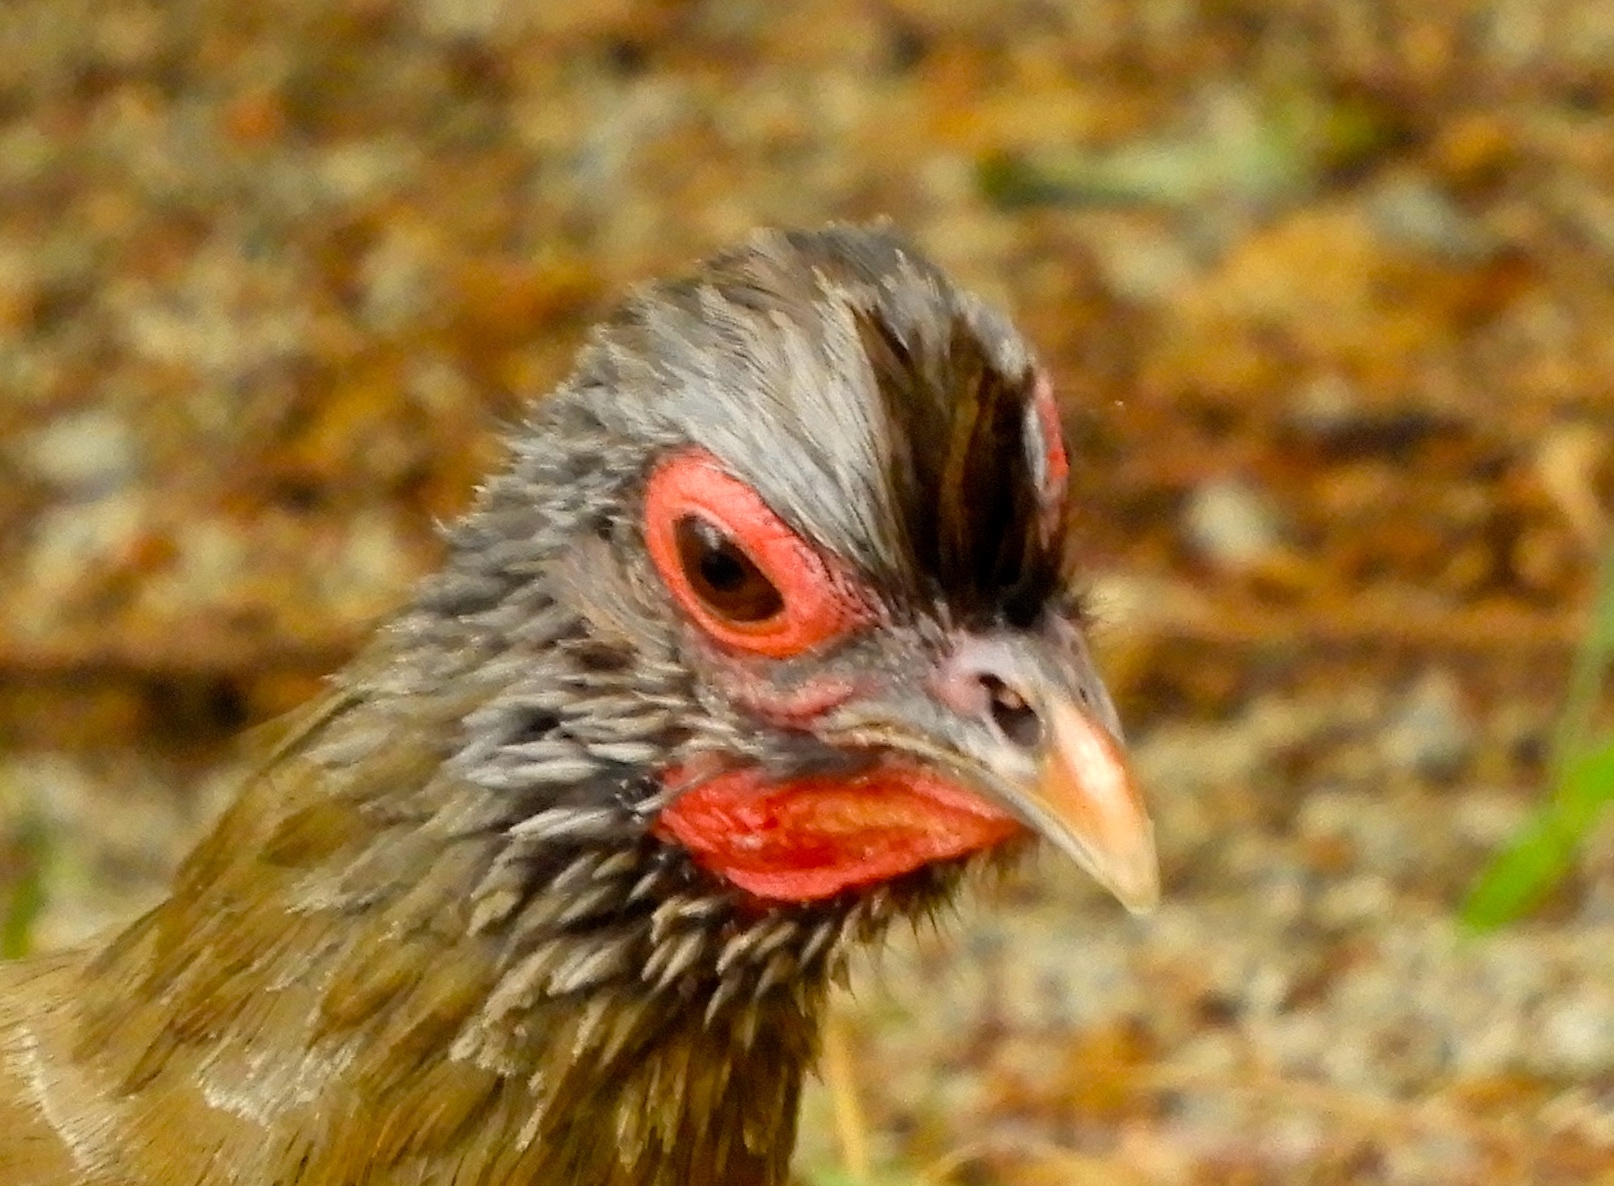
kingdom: Animalia
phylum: Chordata
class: Aves
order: Galliformes
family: Cracidae
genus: Ortalis
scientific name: Ortalis wagleri
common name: Rufous-bellied chachalaca
